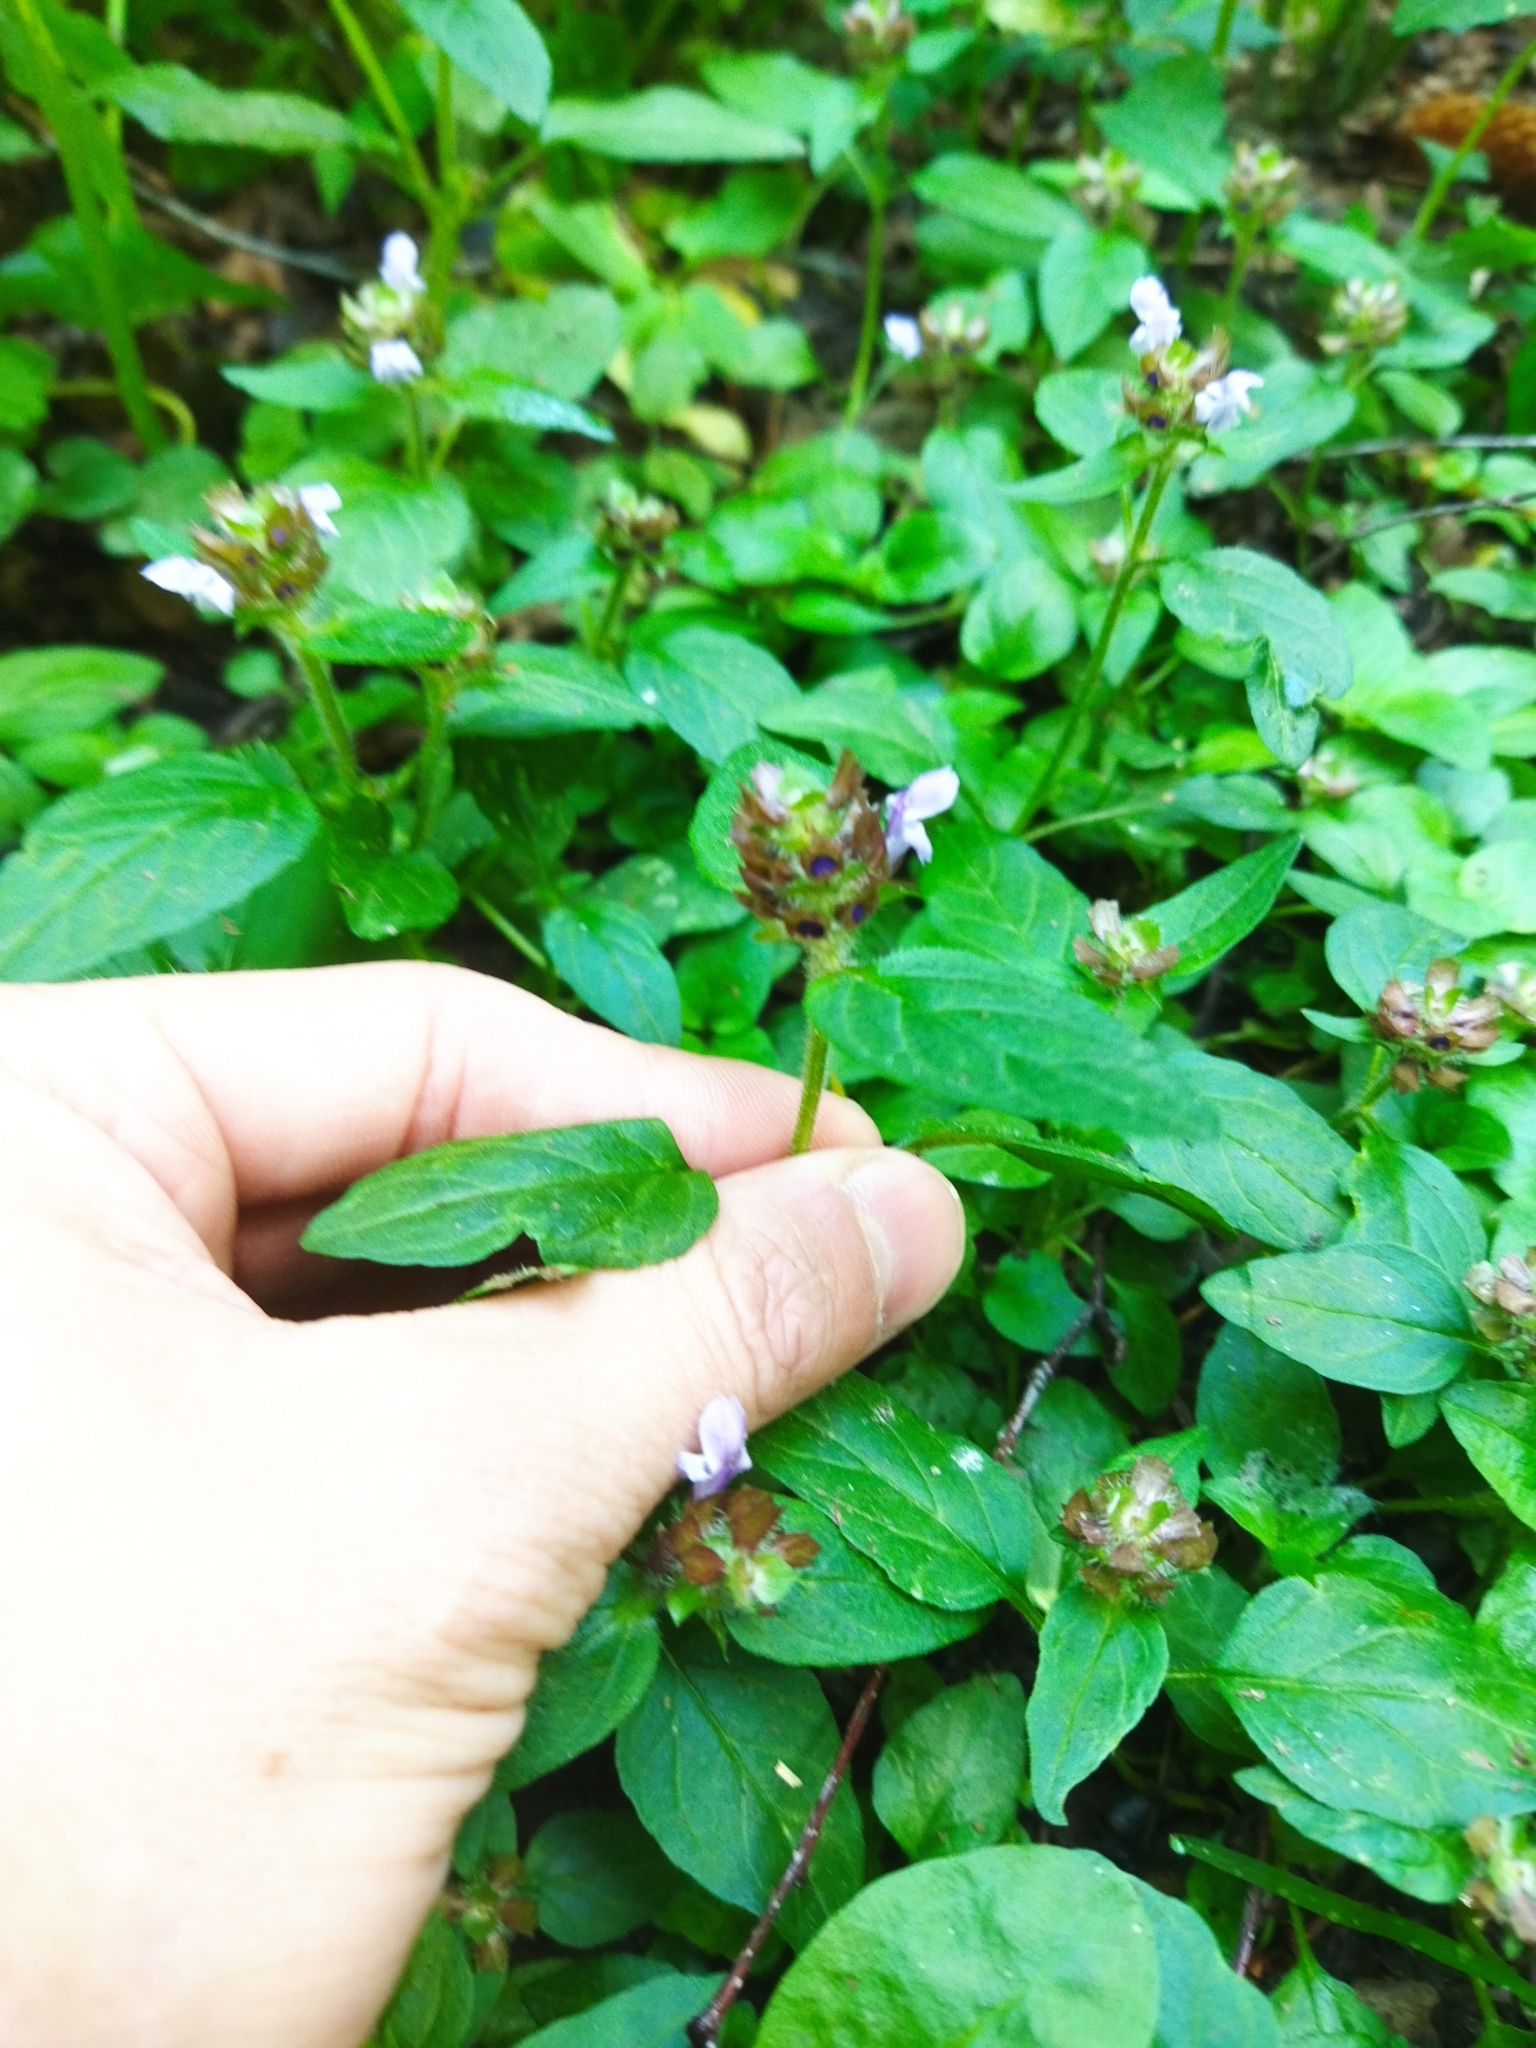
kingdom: Plantae
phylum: Tracheophyta
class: Magnoliopsida
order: Lamiales
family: Lamiaceae
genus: Prunella
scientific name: Prunella vulgaris
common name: Heal-all
